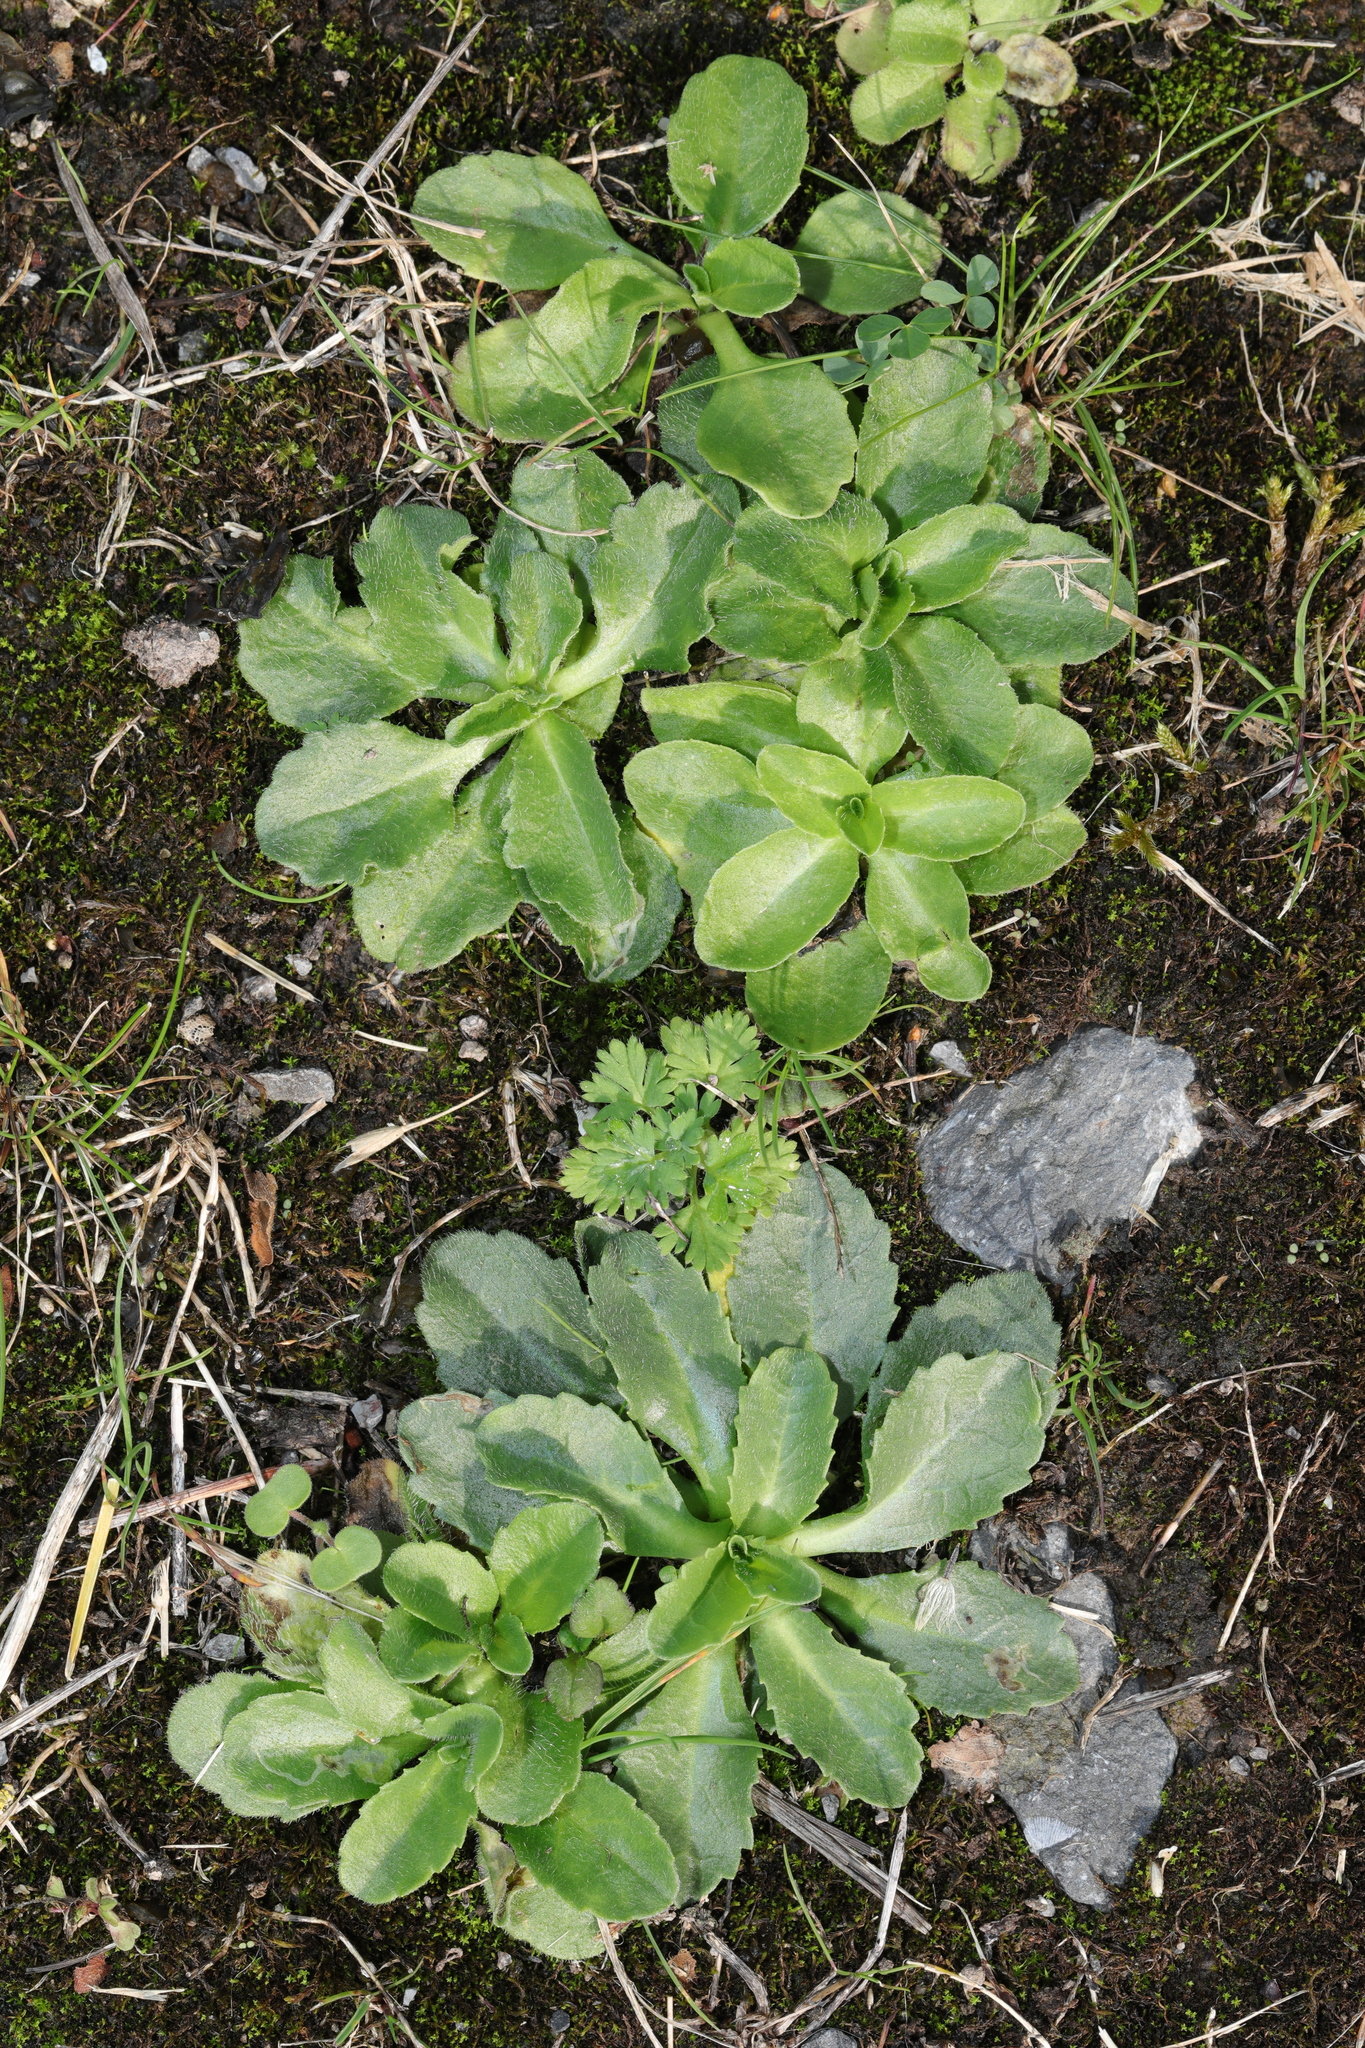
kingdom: Plantae
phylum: Tracheophyta
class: Magnoliopsida
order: Asterales
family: Asteraceae
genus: Bellis
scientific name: Bellis perennis
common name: Lawndaisy
